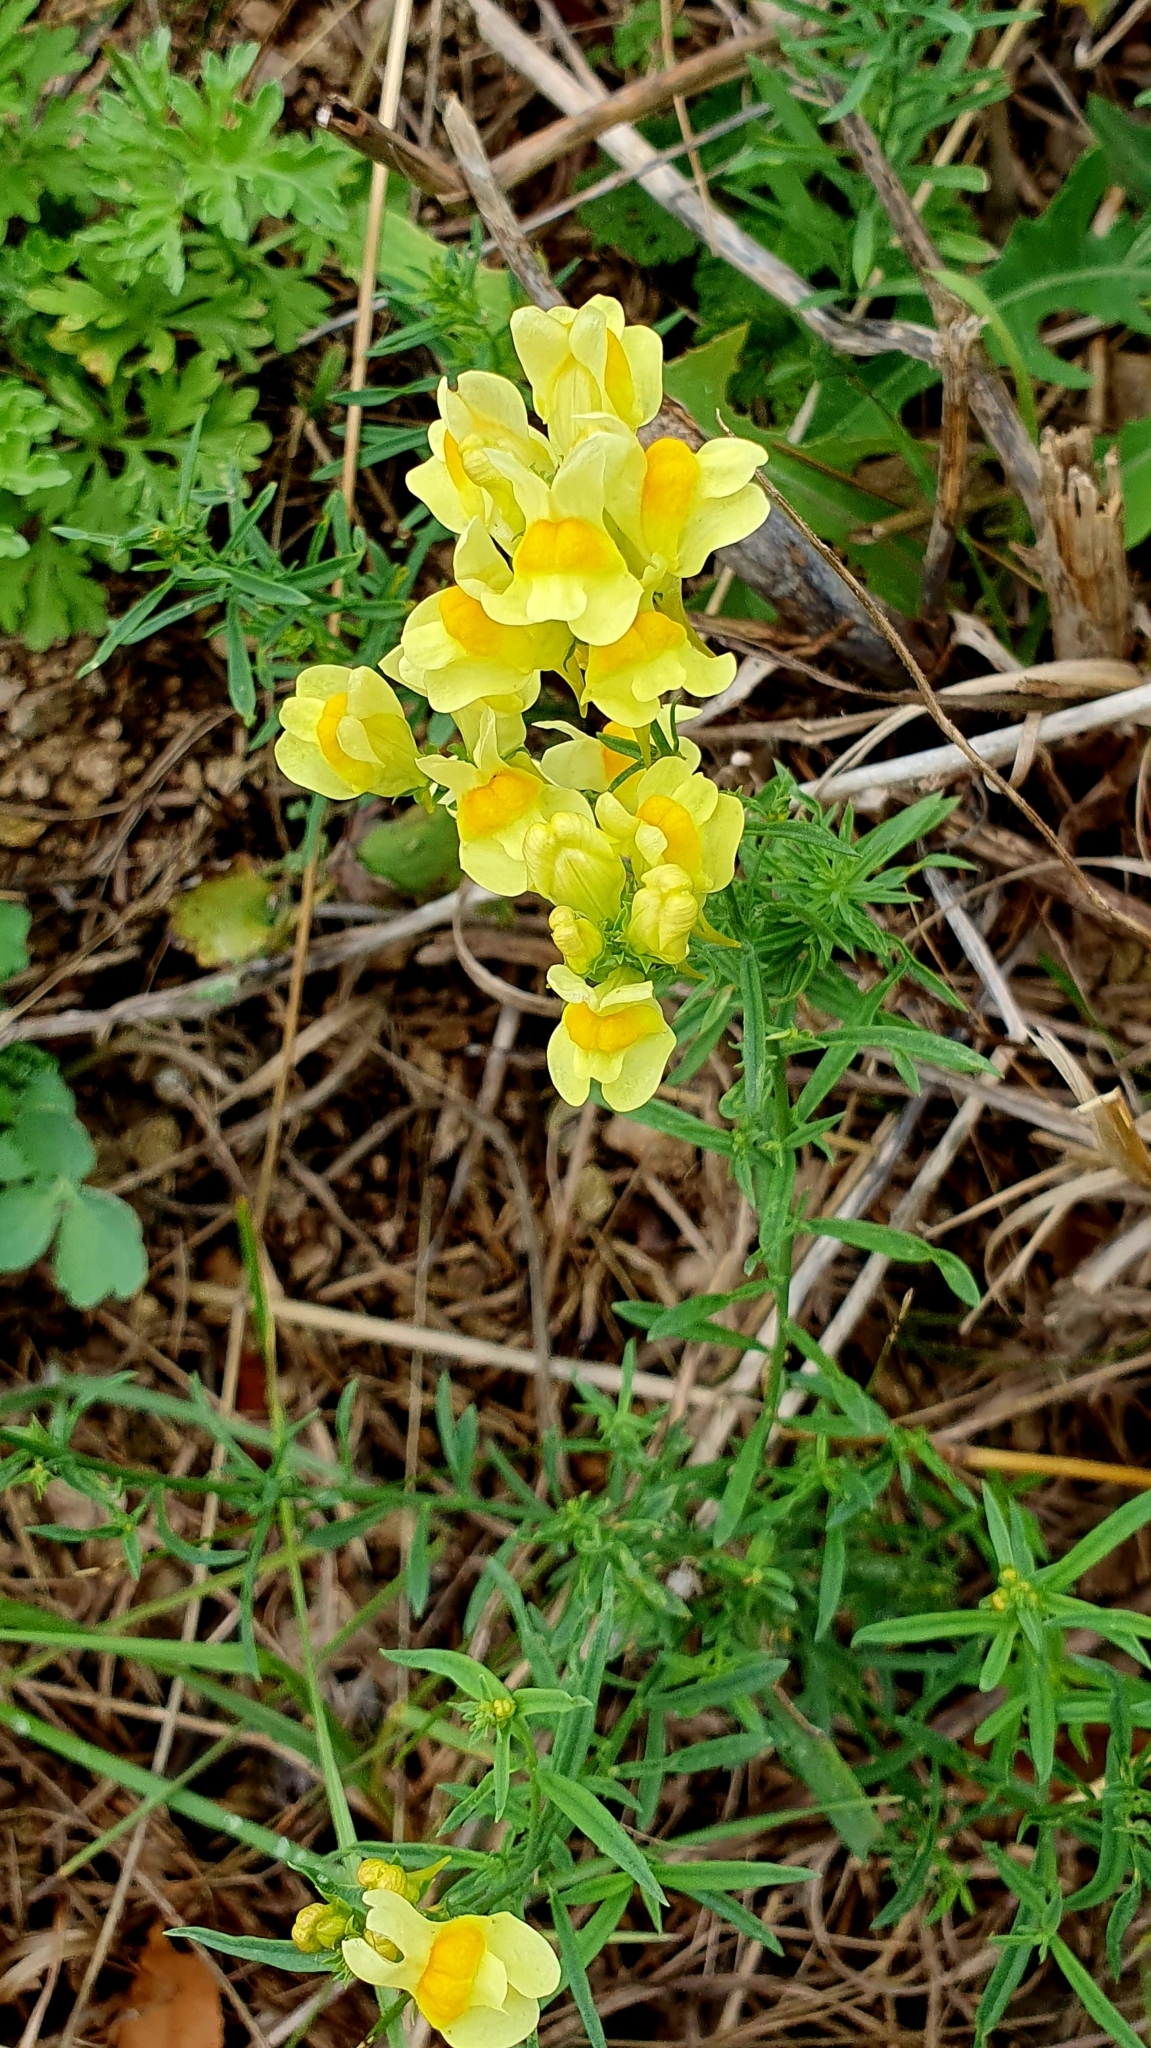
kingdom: Plantae
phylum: Tracheophyta
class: Magnoliopsida
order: Lamiales
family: Plantaginaceae
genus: Linaria
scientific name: Linaria vulgaris
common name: Butter and eggs
